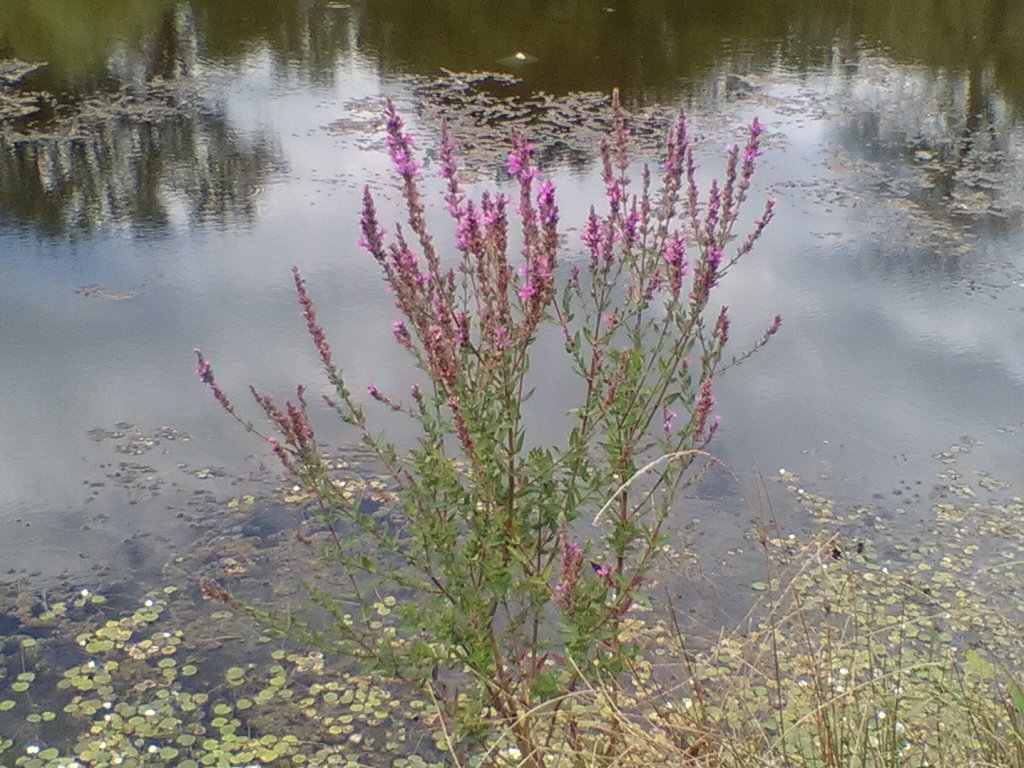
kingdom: Plantae
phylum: Tracheophyta
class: Magnoliopsida
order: Myrtales
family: Lythraceae
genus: Lythrum
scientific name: Lythrum salicaria
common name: Purple loosestrife
